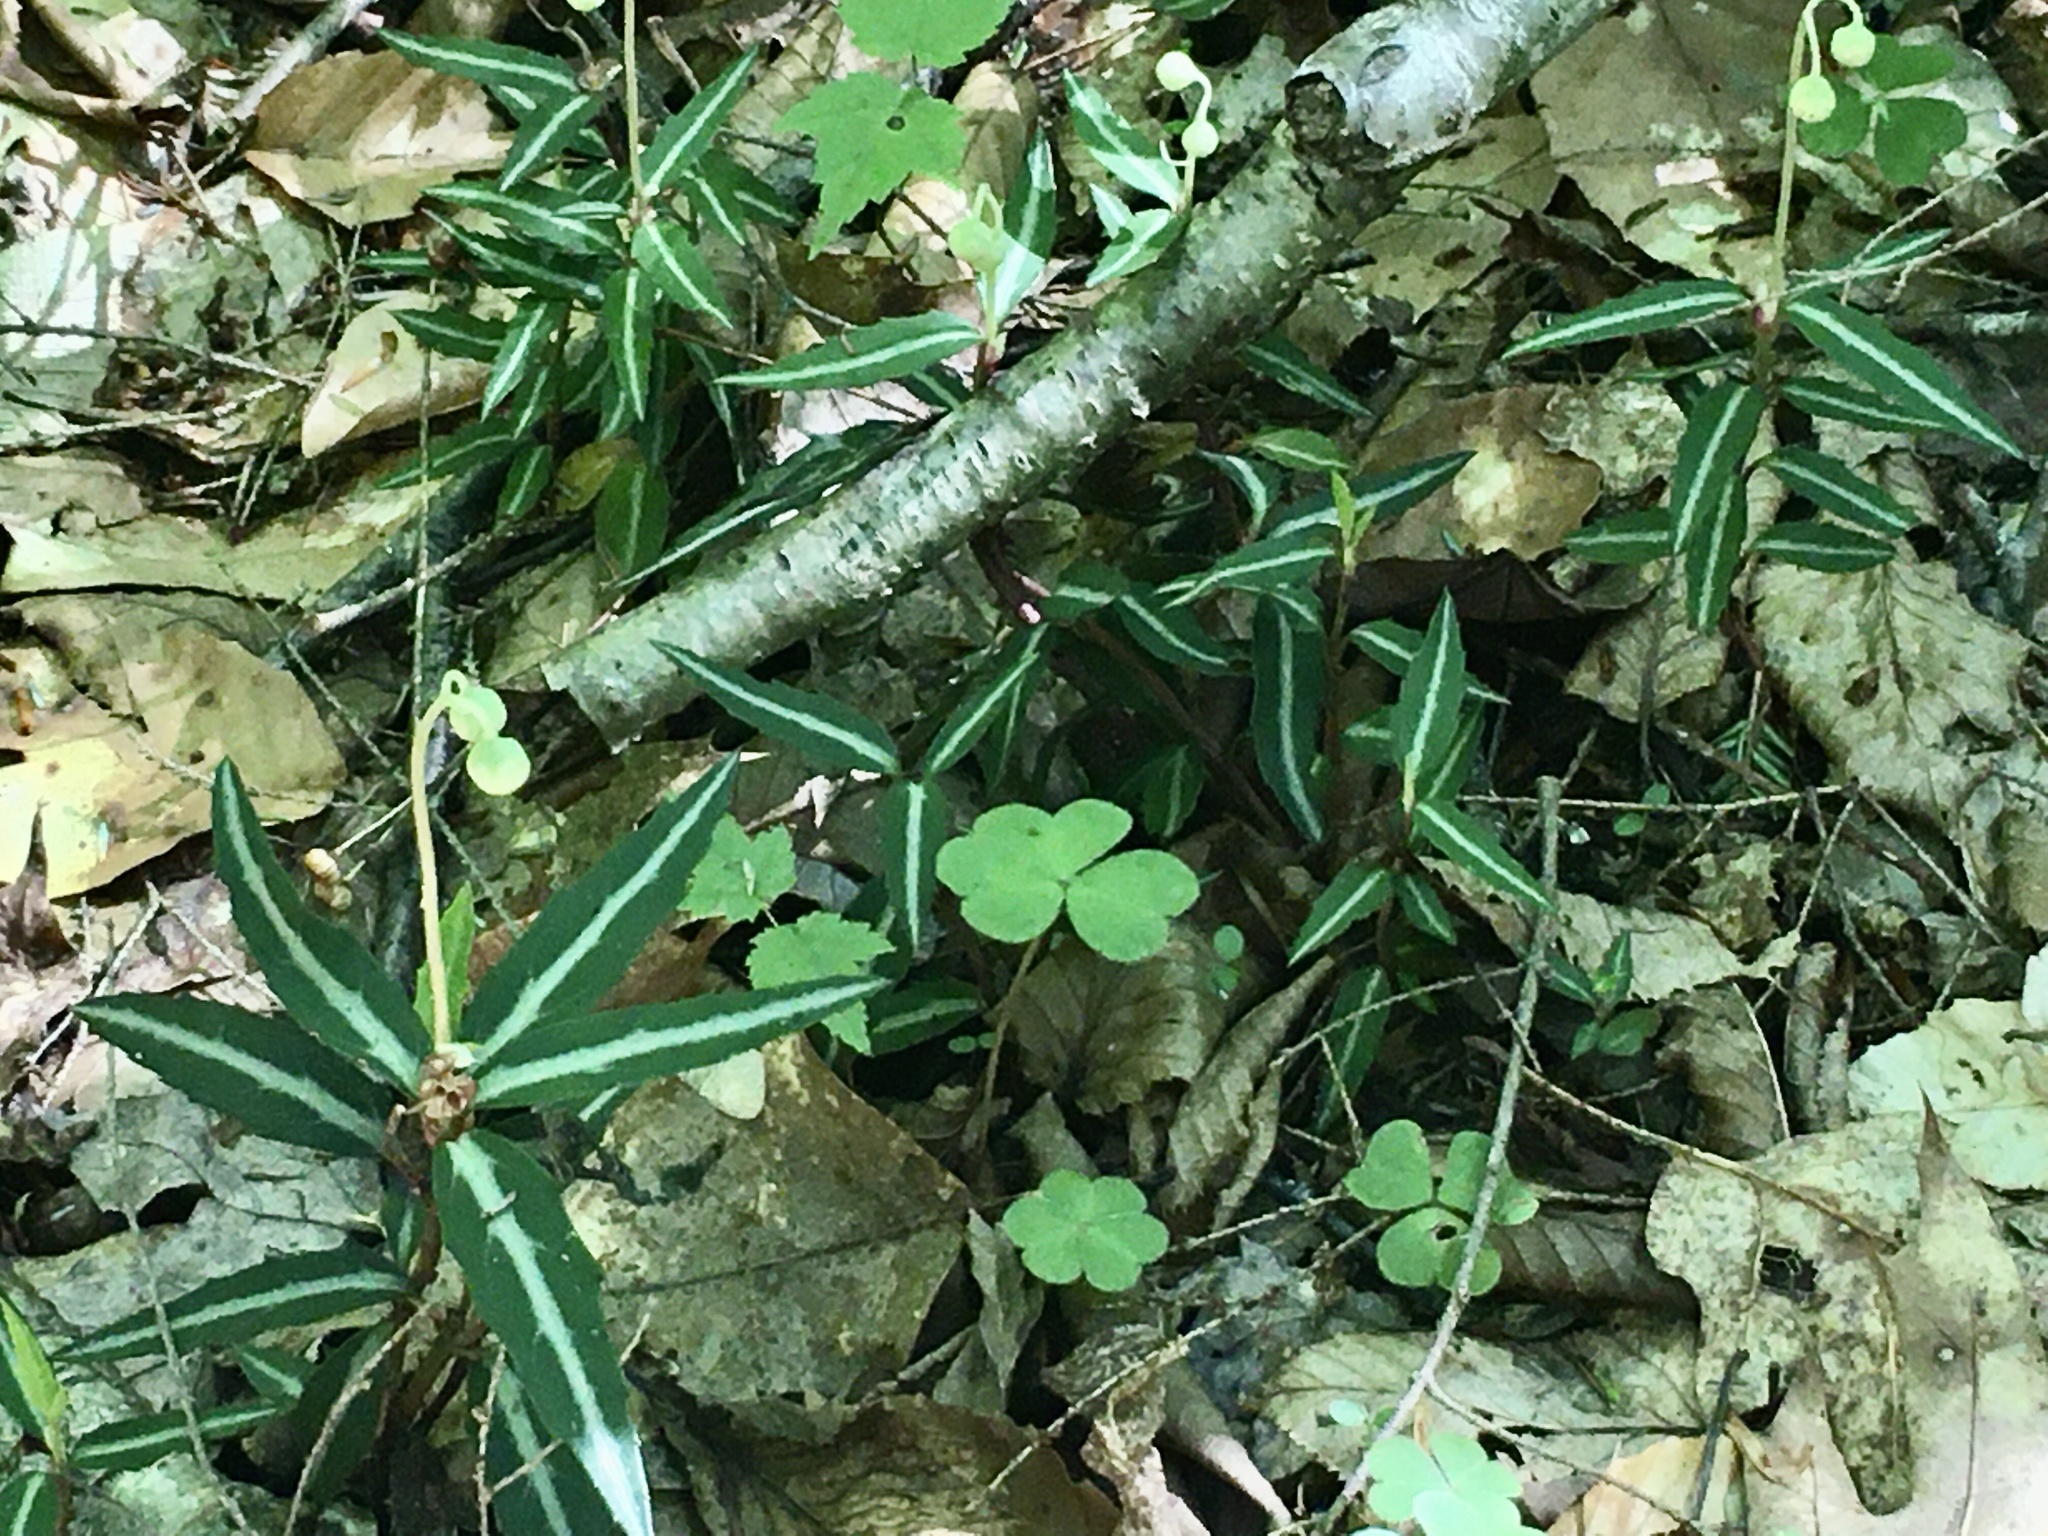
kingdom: Plantae
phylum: Tracheophyta
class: Magnoliopsida
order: Ericales
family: Ericaceae
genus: Chimaphila
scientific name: Chimaphila maculata
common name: Spotted pipsissewa
